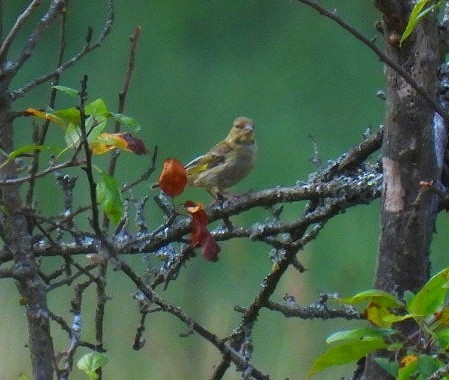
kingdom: Plantae
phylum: Tracheophyta
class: Liliopsida
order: Poales
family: Poaceae
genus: Chloris
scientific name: Chloris chloris
